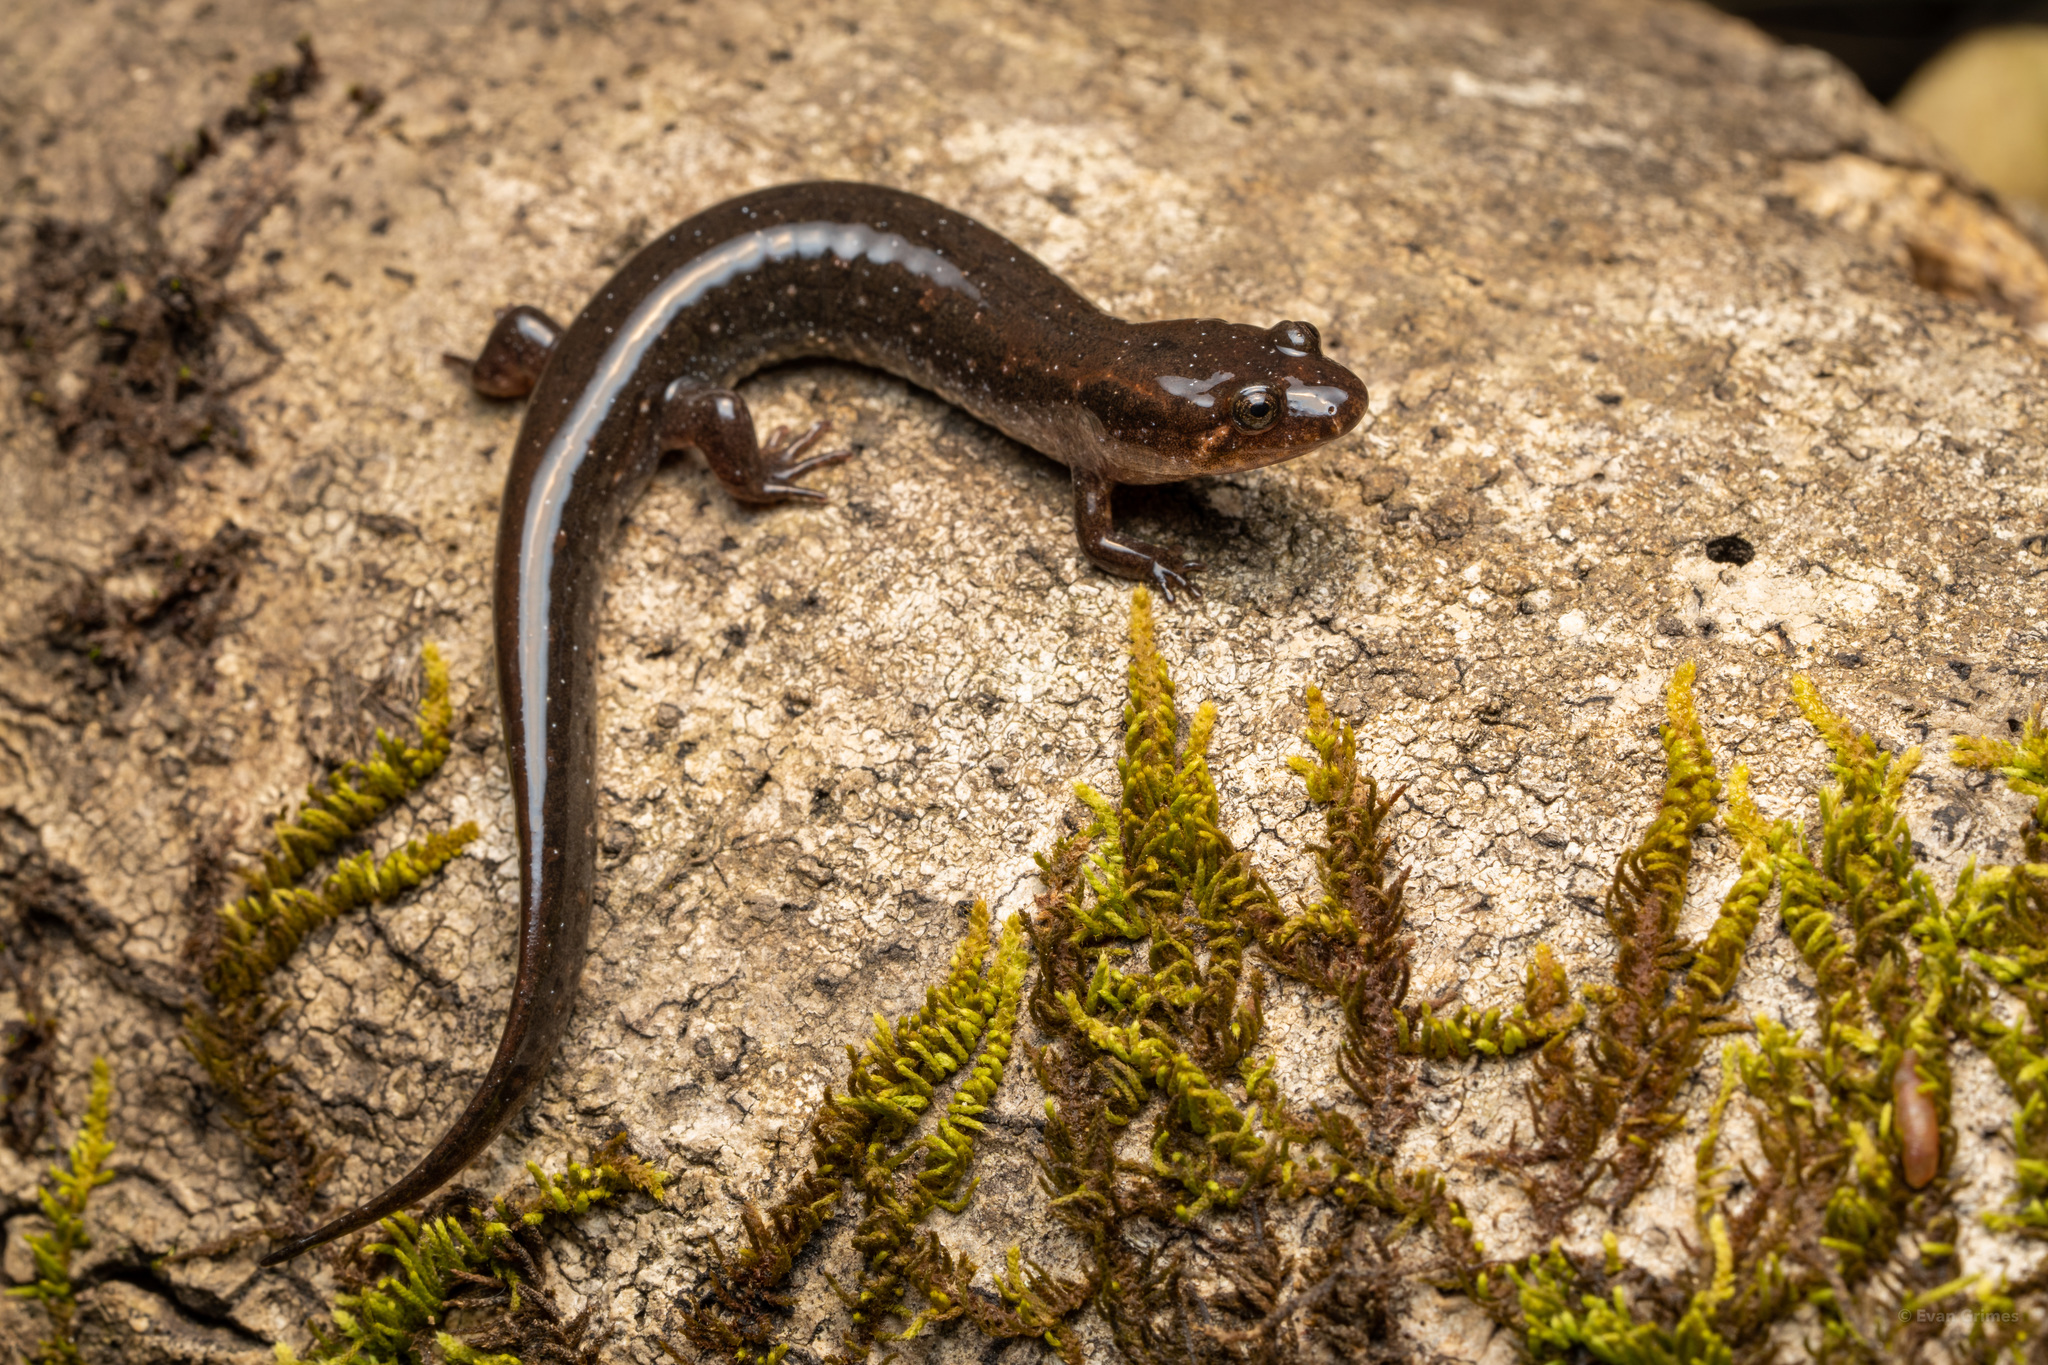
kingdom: Animalia
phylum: Chordata
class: Amphibia
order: Caudata
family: Plethodontidae
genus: Desmognathus
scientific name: Desmognathus
